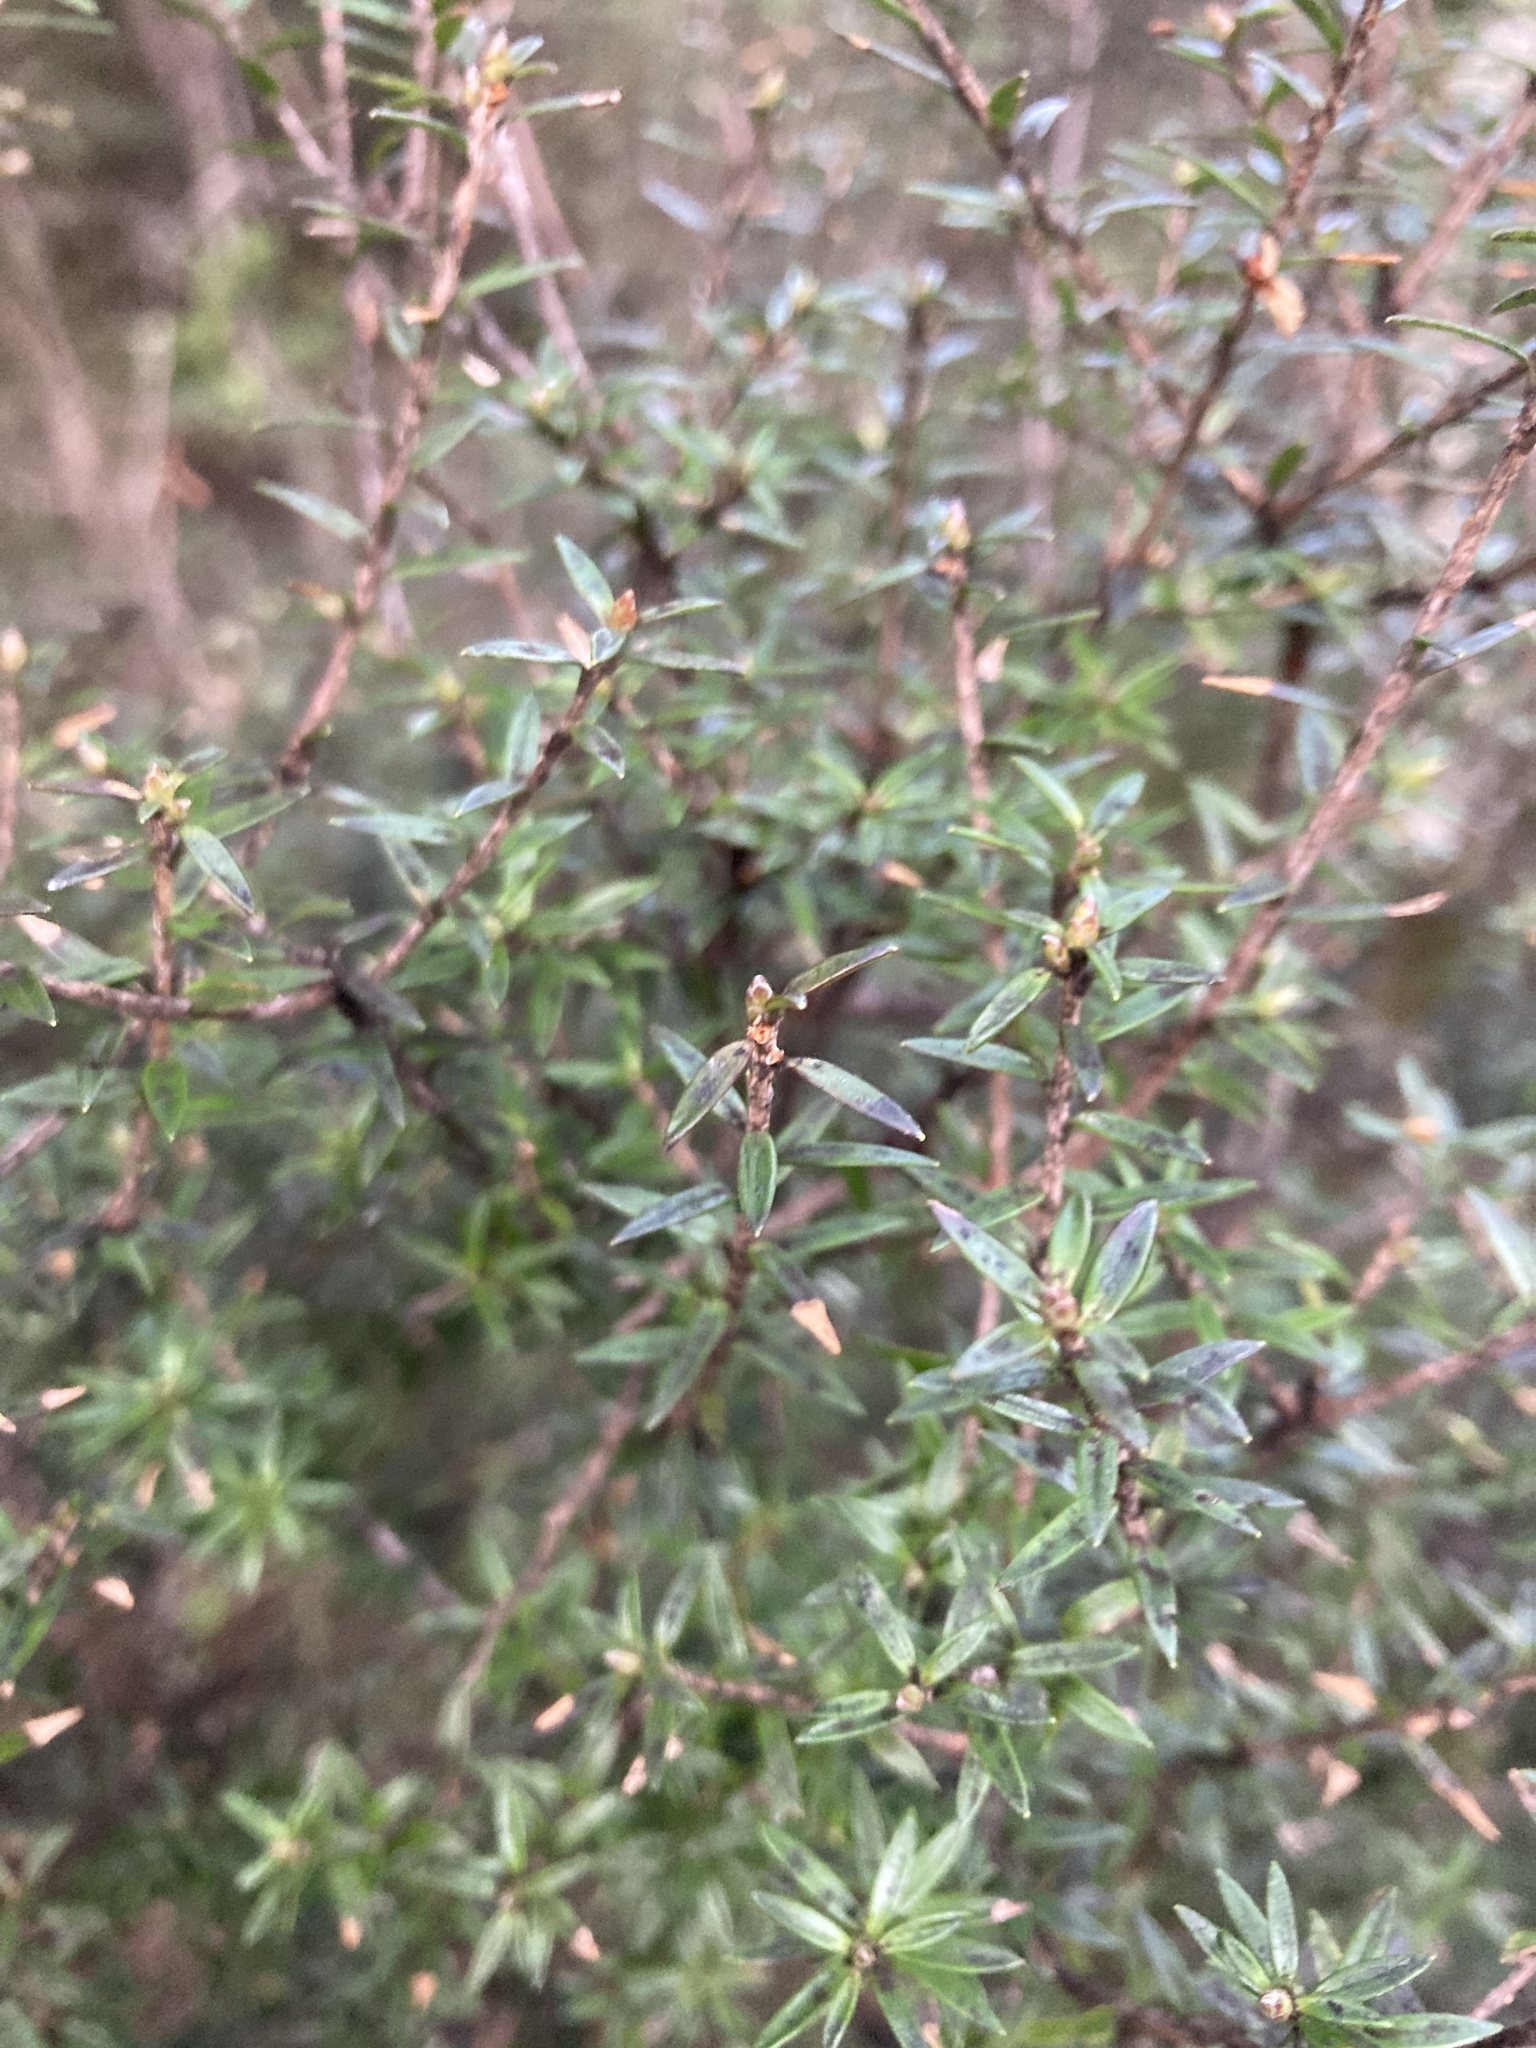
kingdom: Plantae
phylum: Tracheophyta
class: Magnoliopsida
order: Ericales
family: Ericaceae
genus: Archeria
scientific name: Archeria traversii
